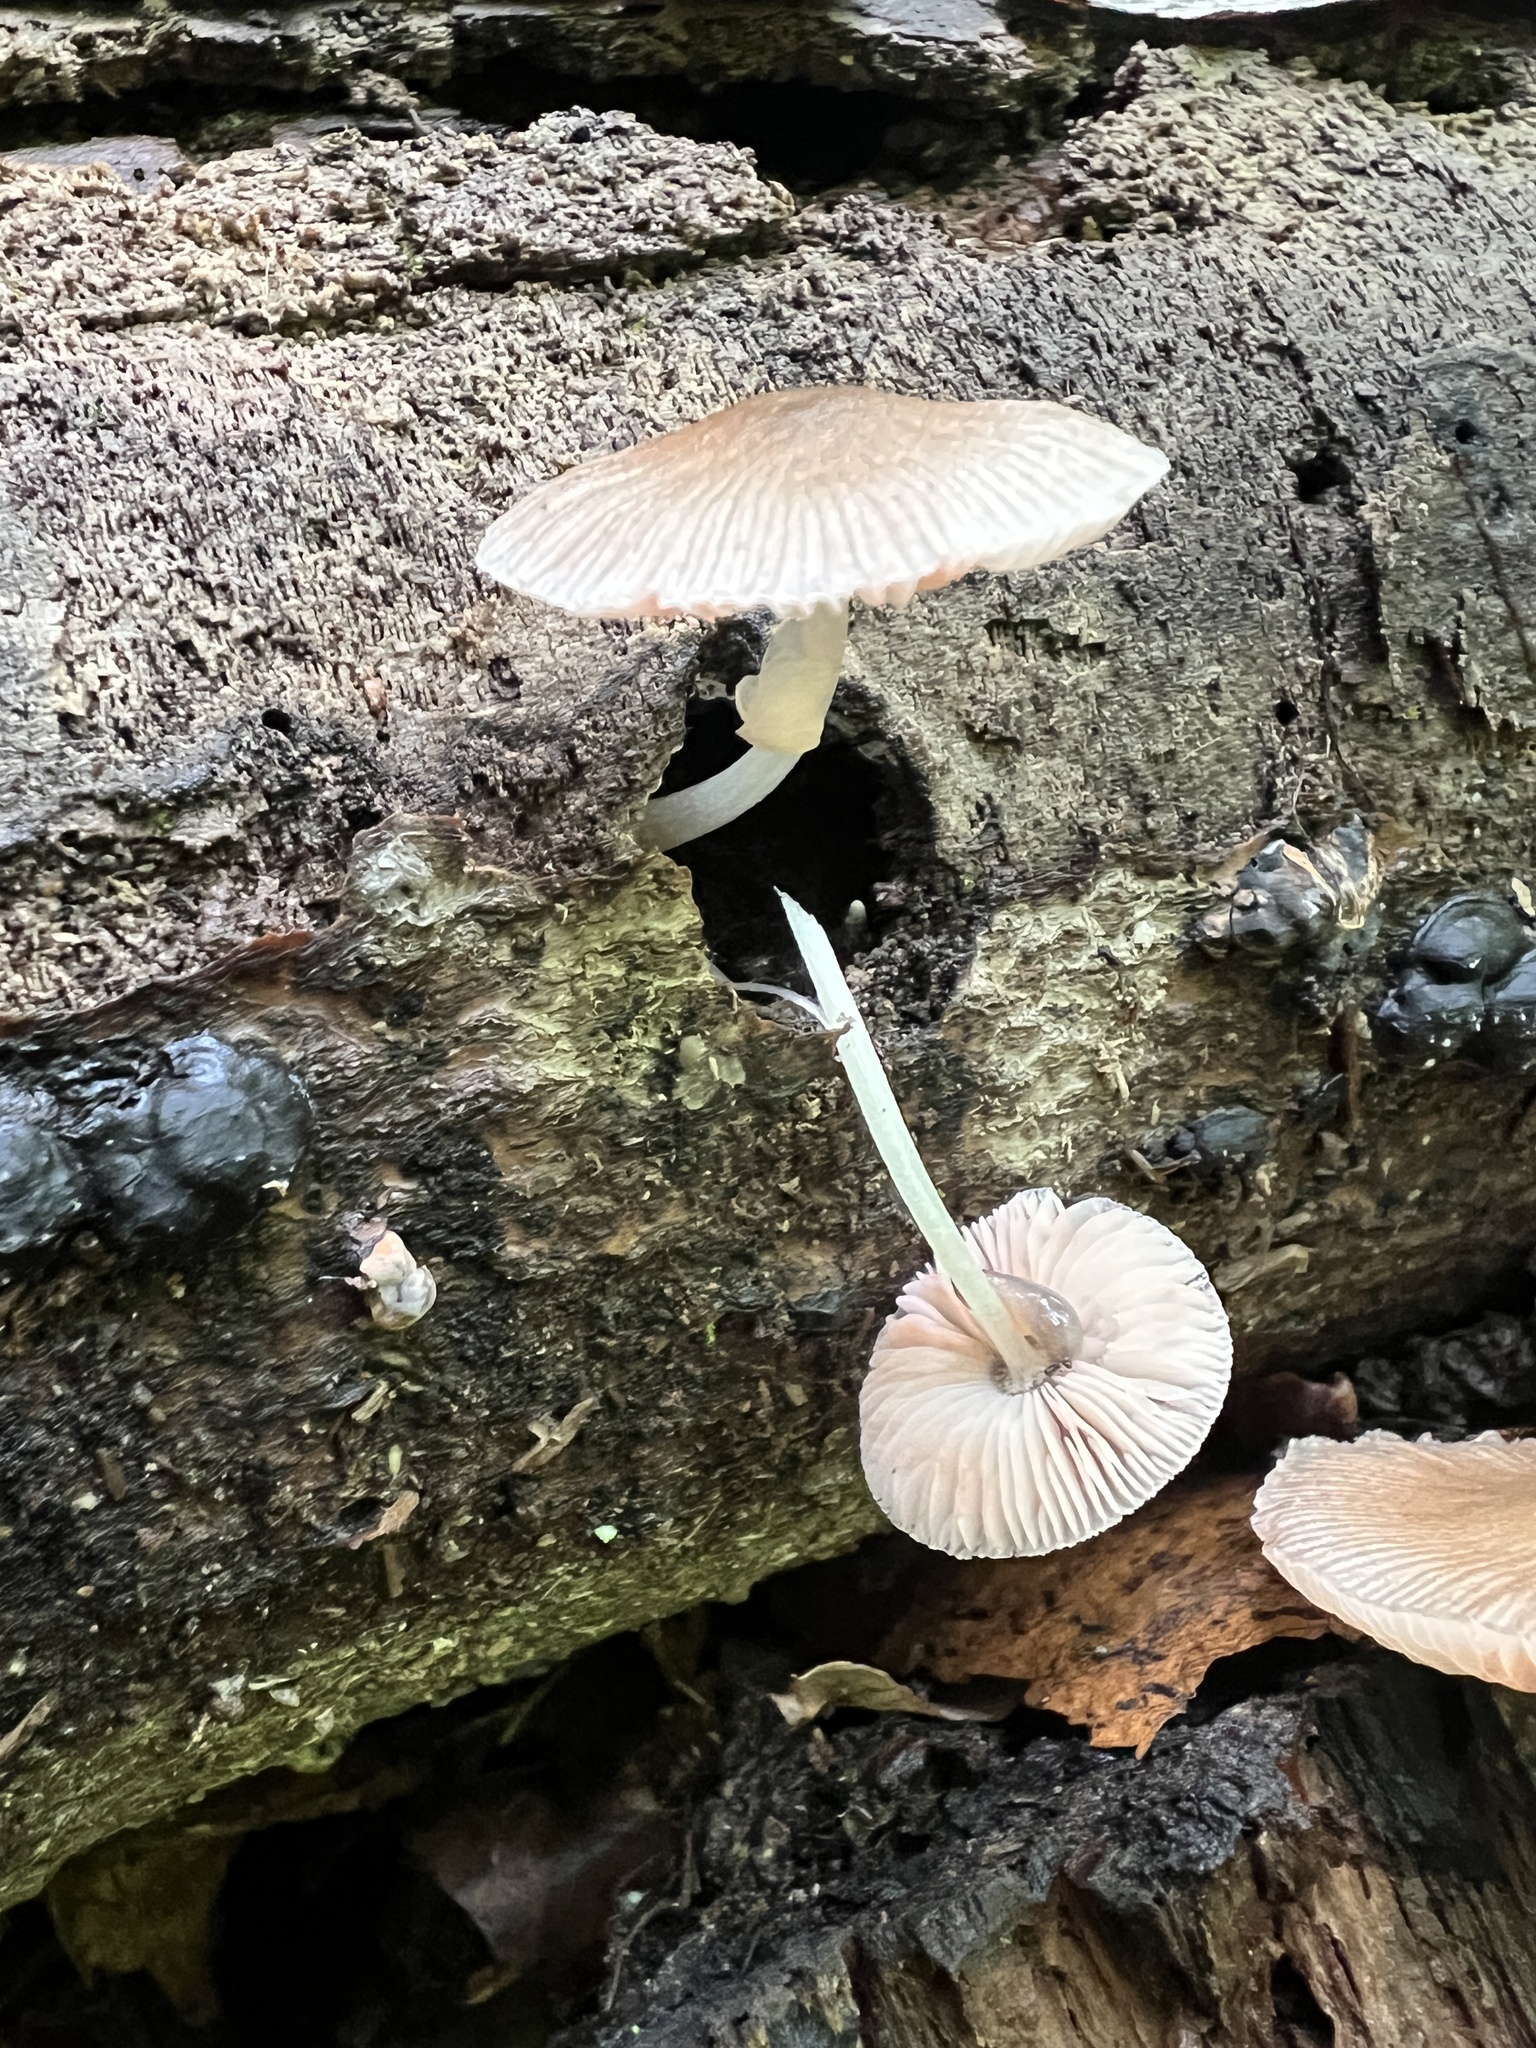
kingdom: Fungi
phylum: Basidiomycota
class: Agaricomycetes
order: Agaricales
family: Pluteaceae
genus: Pluteus
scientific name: Pluteus longistriatus
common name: Pleated pluteus
